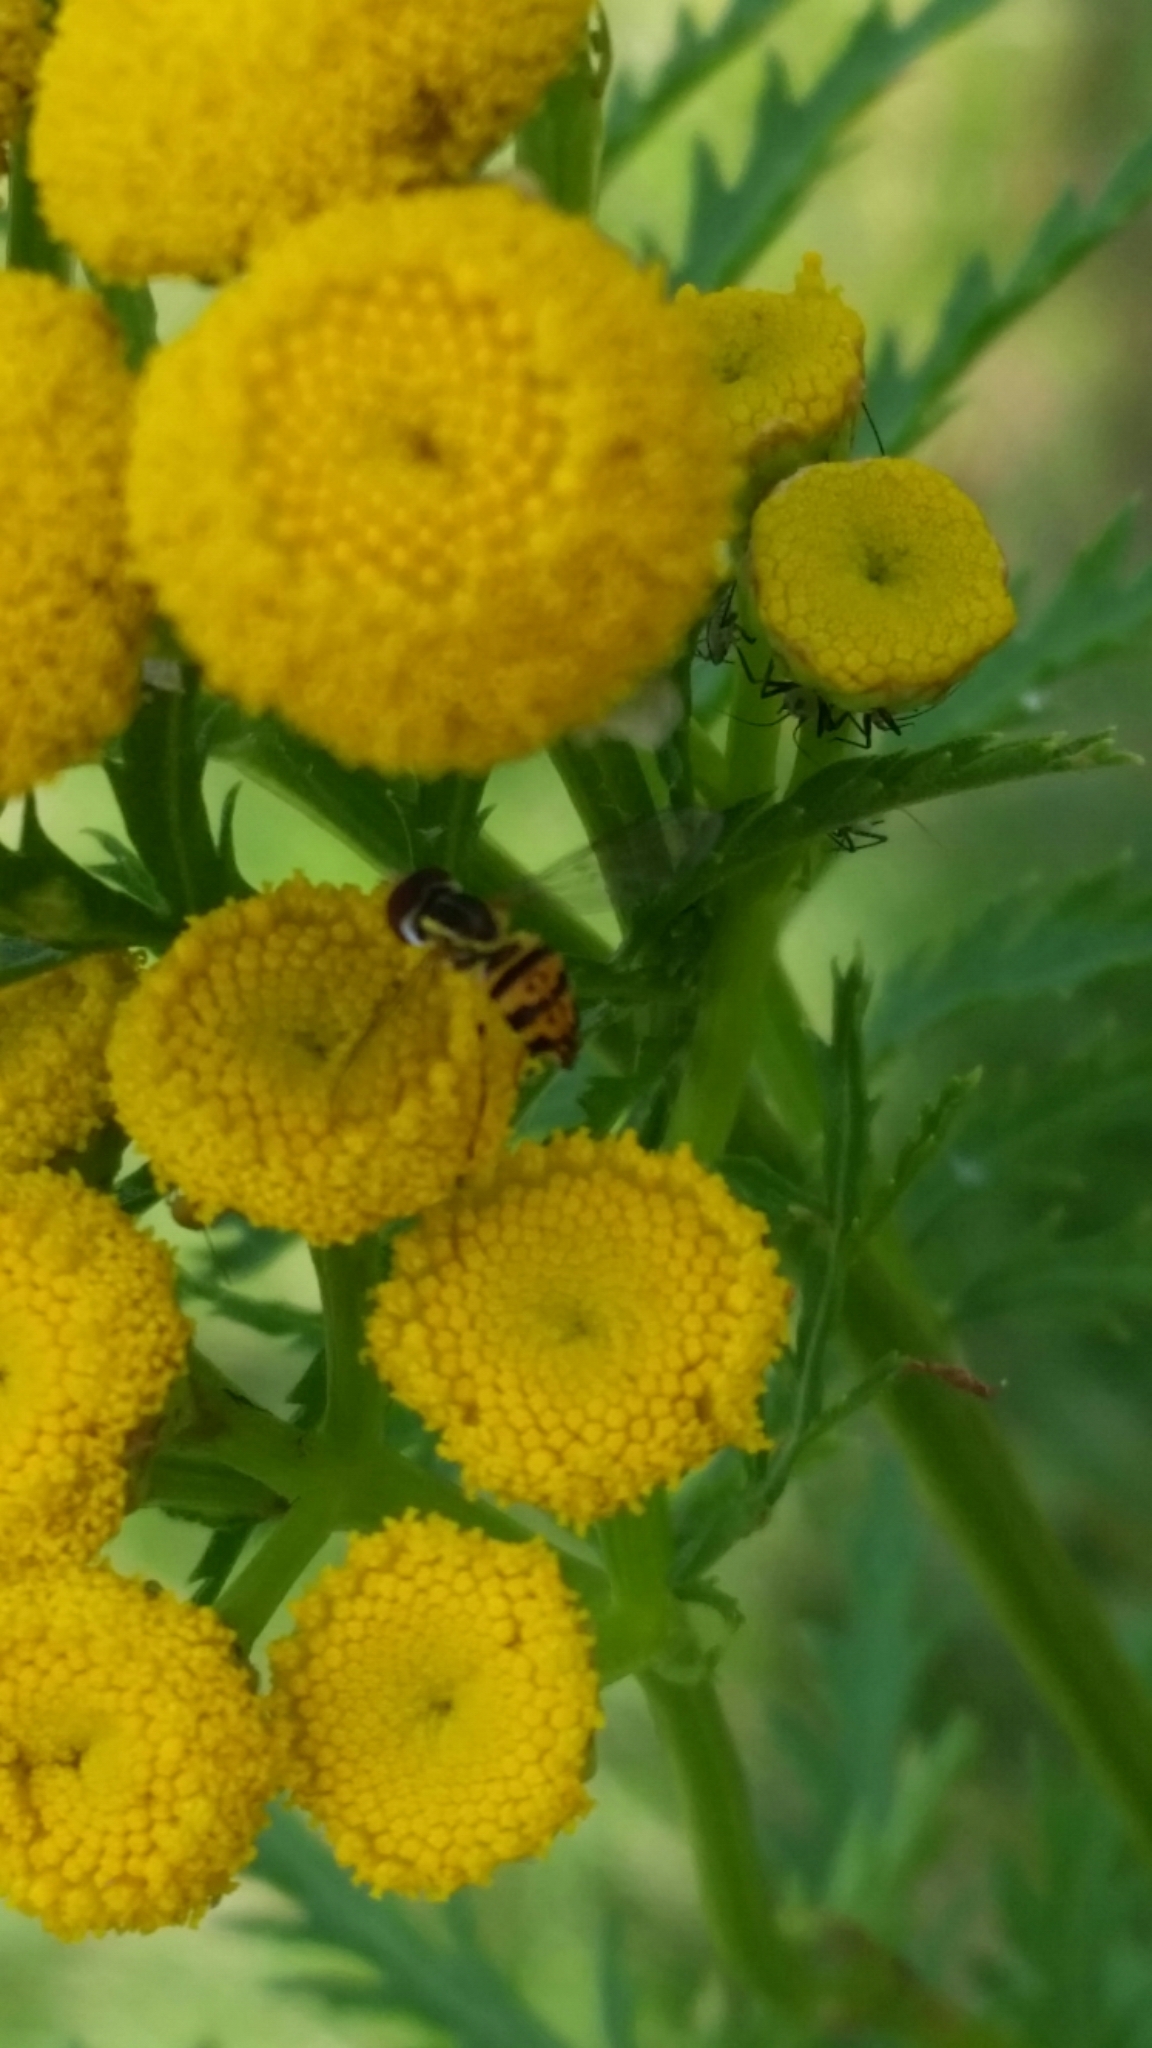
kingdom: Animalia
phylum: Arthropoda
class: Insecta
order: Diptera
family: Syrphidae
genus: Toxomerus
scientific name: Toxomerus geminatus
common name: Eastern calligrapher
